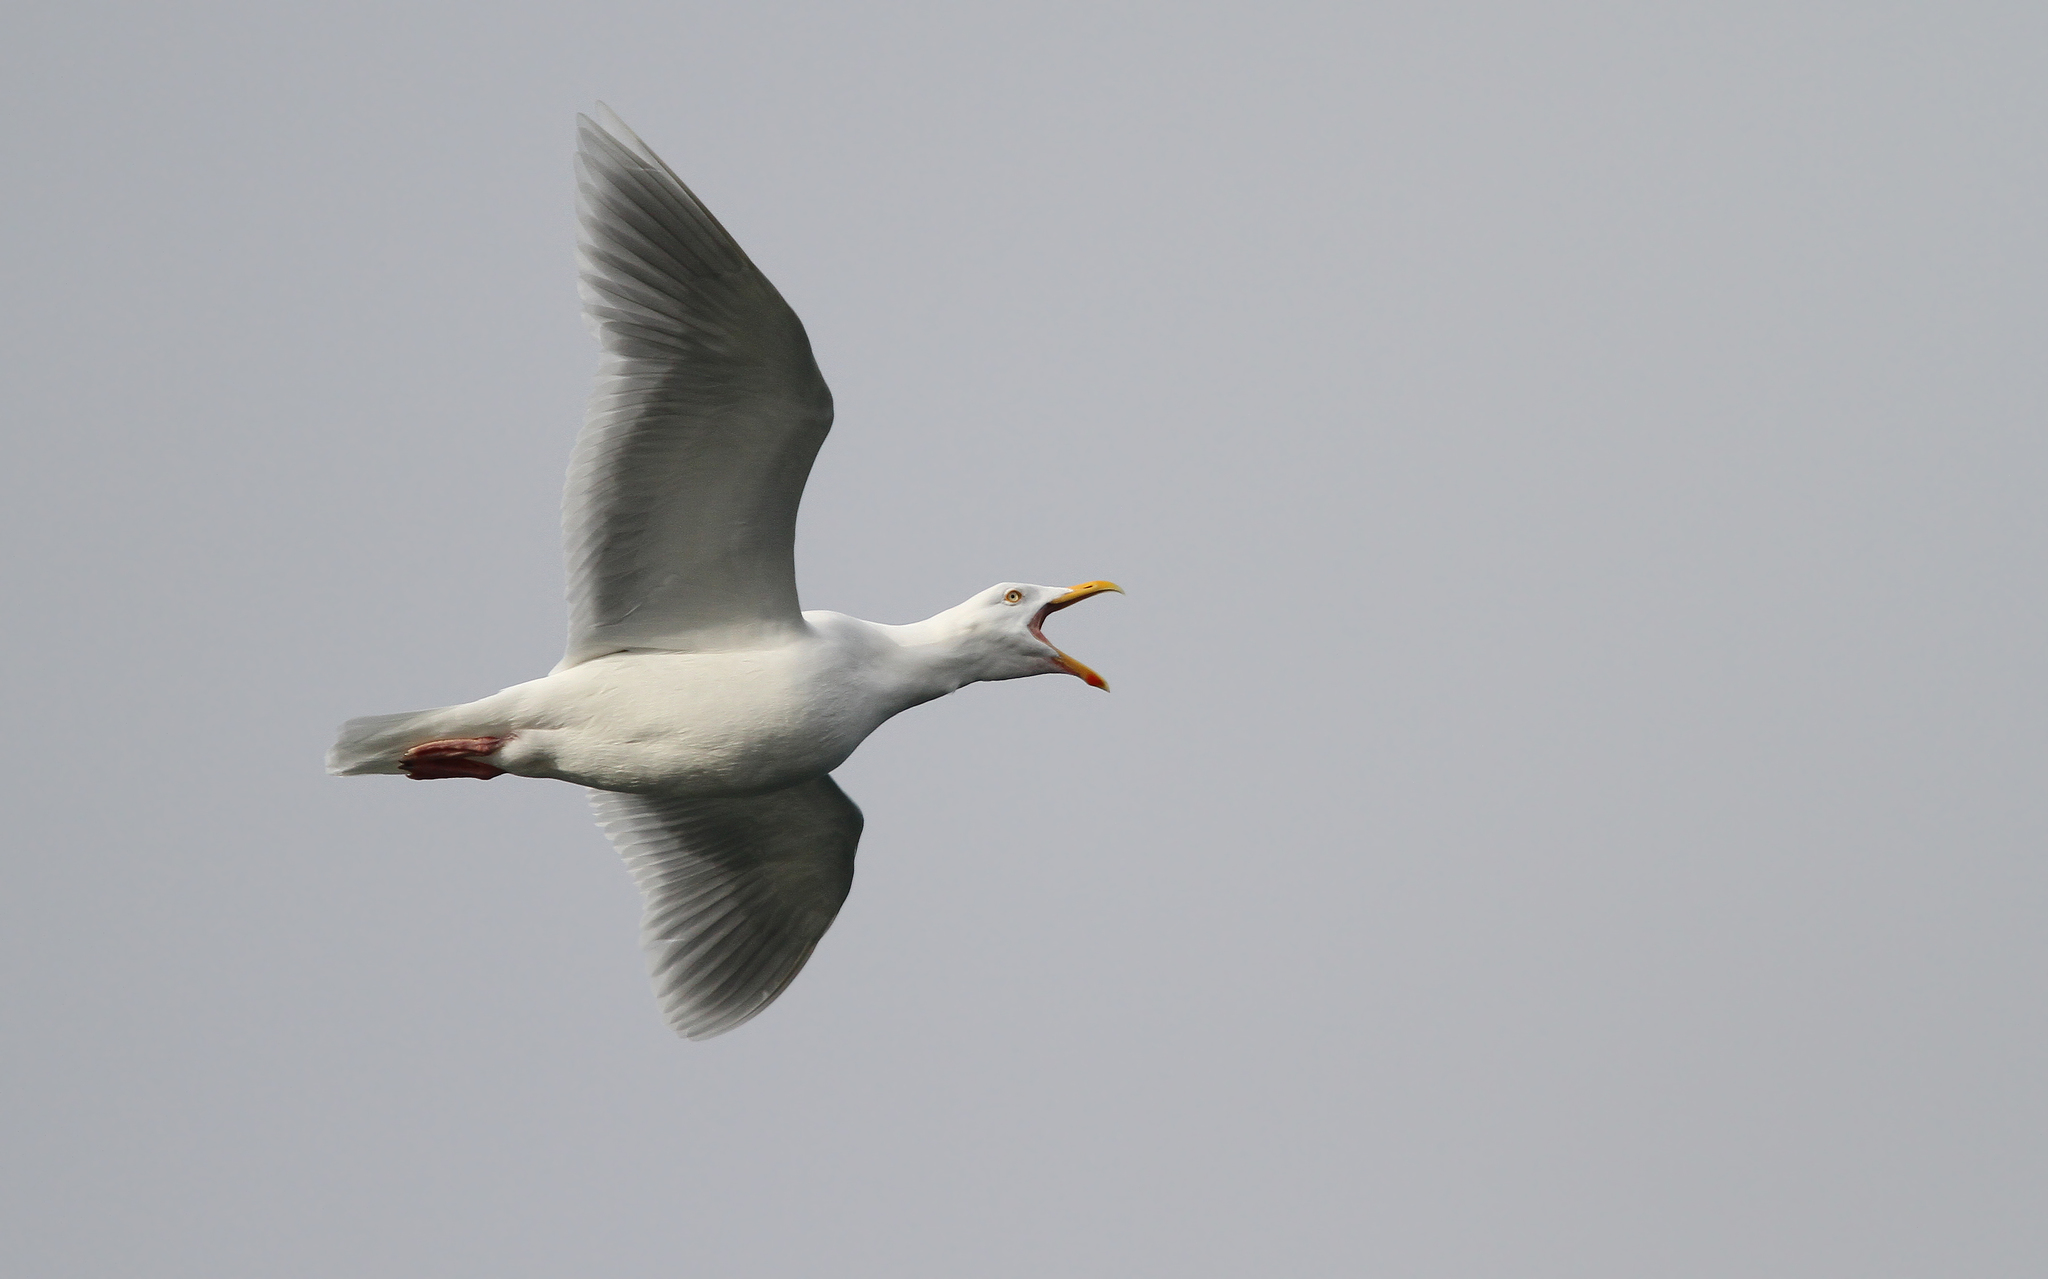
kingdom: Animalia
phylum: Chordata
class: Aves
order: Charadriiformes
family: Laridae
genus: Larus
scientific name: Larus hyperboreus
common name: Glaucous gull
